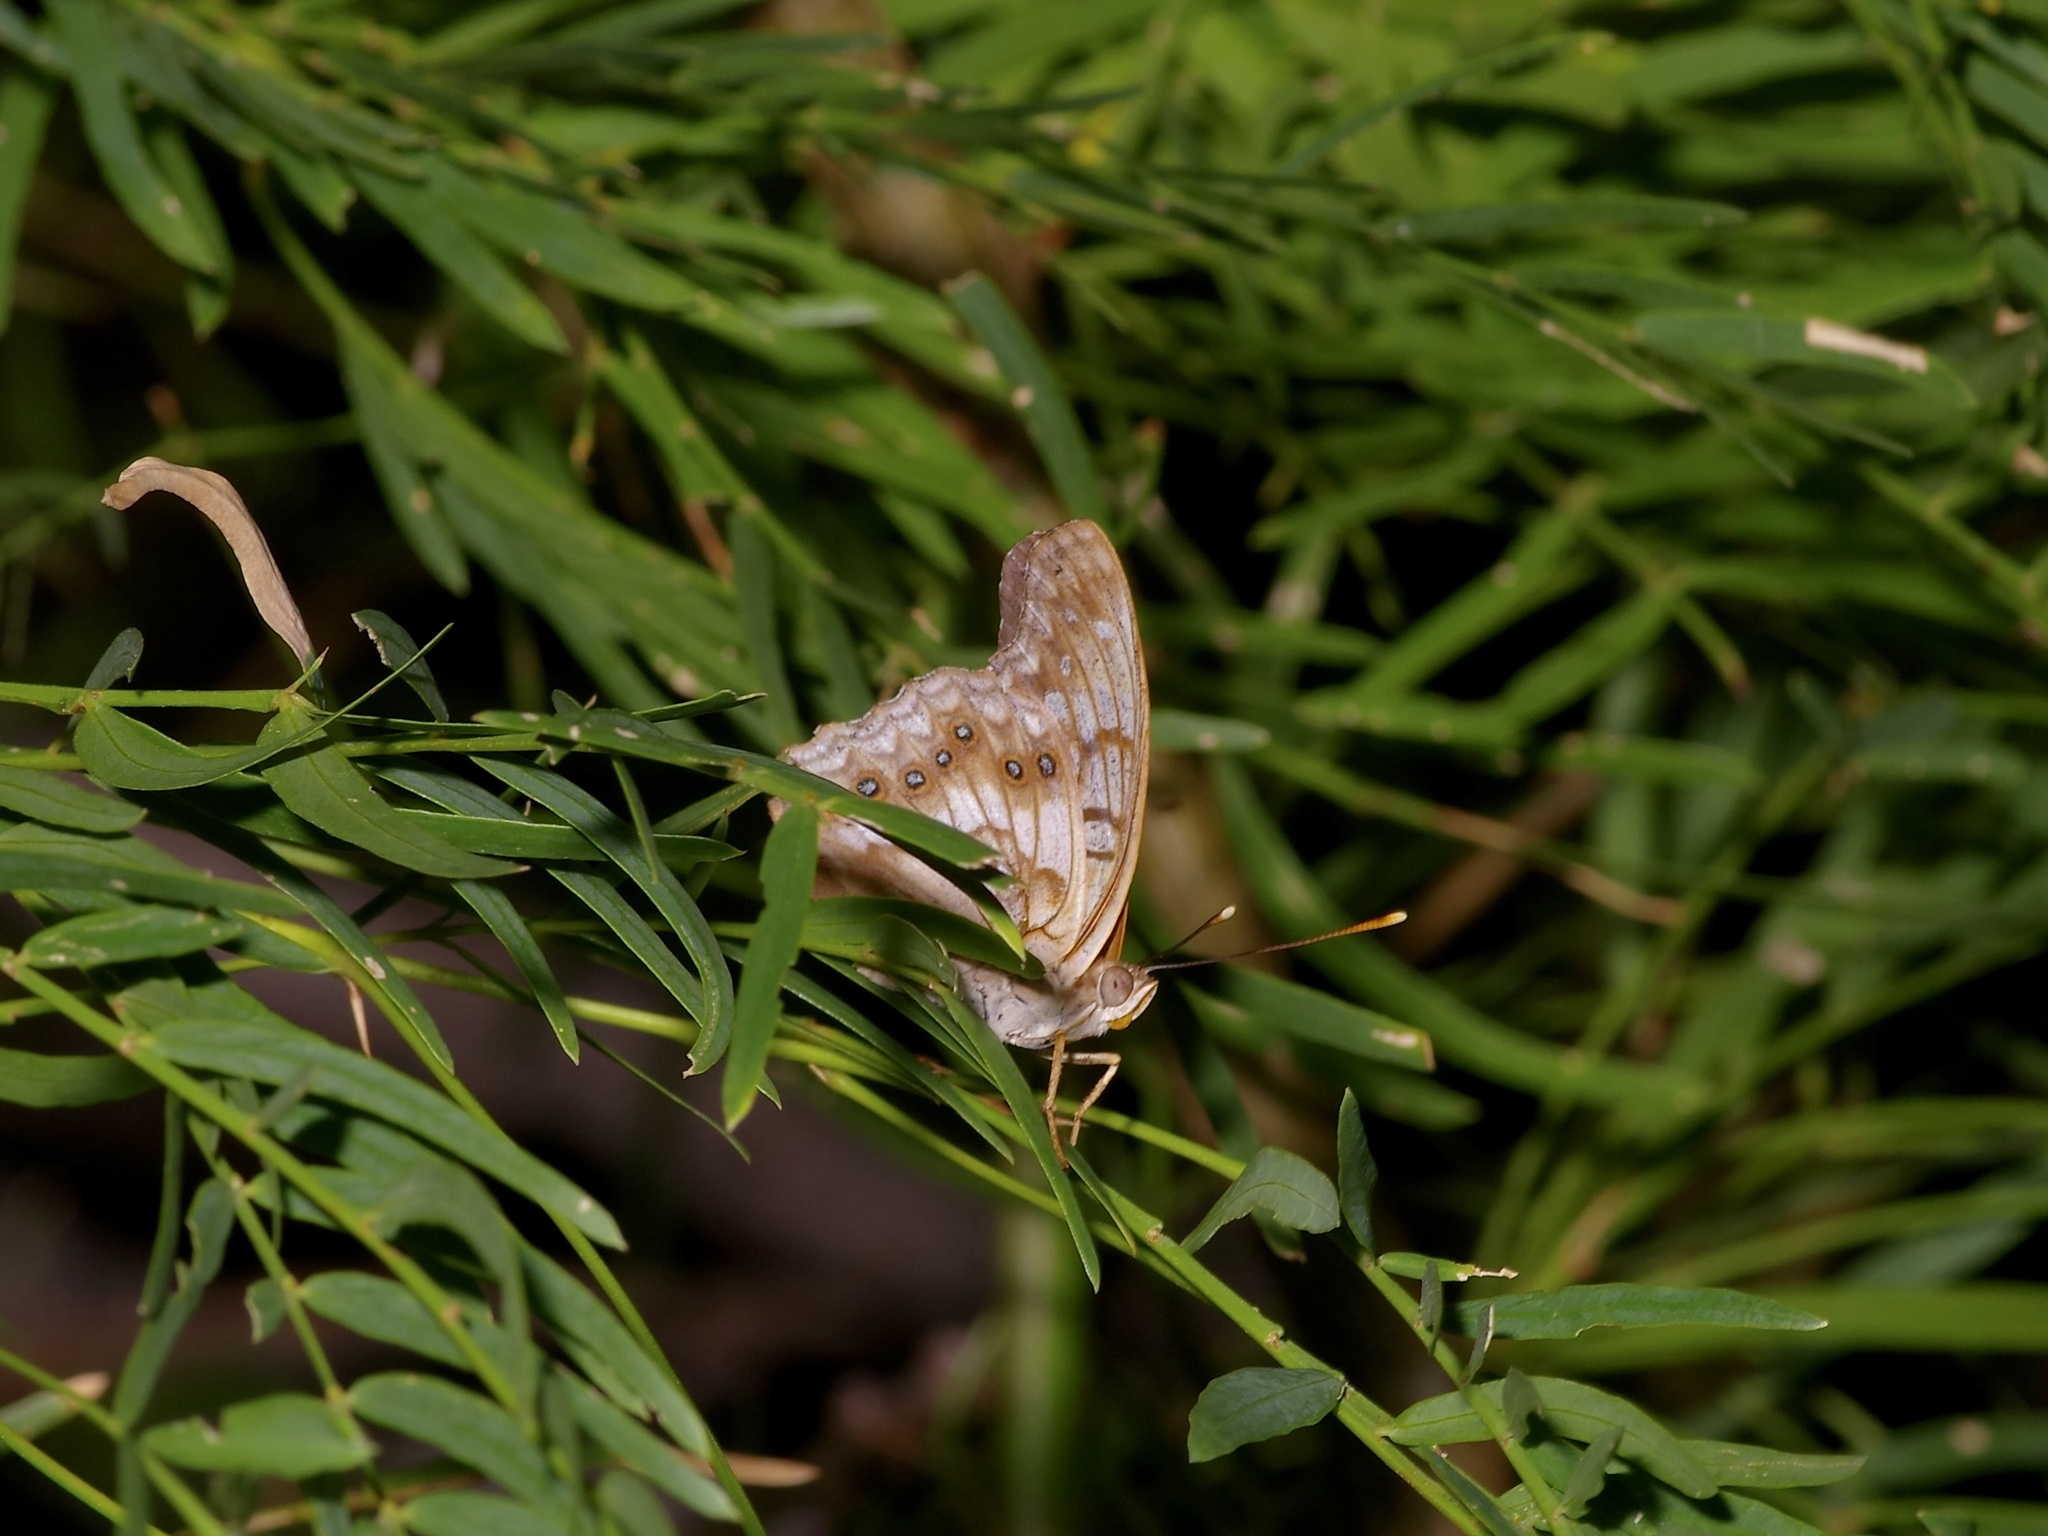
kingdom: Animalia
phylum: Arthropoda
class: Insecta
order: Lepidoptera
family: Nymphalidae
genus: Asterocampa
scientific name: Asterocampa clyton
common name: Tawny emperor
